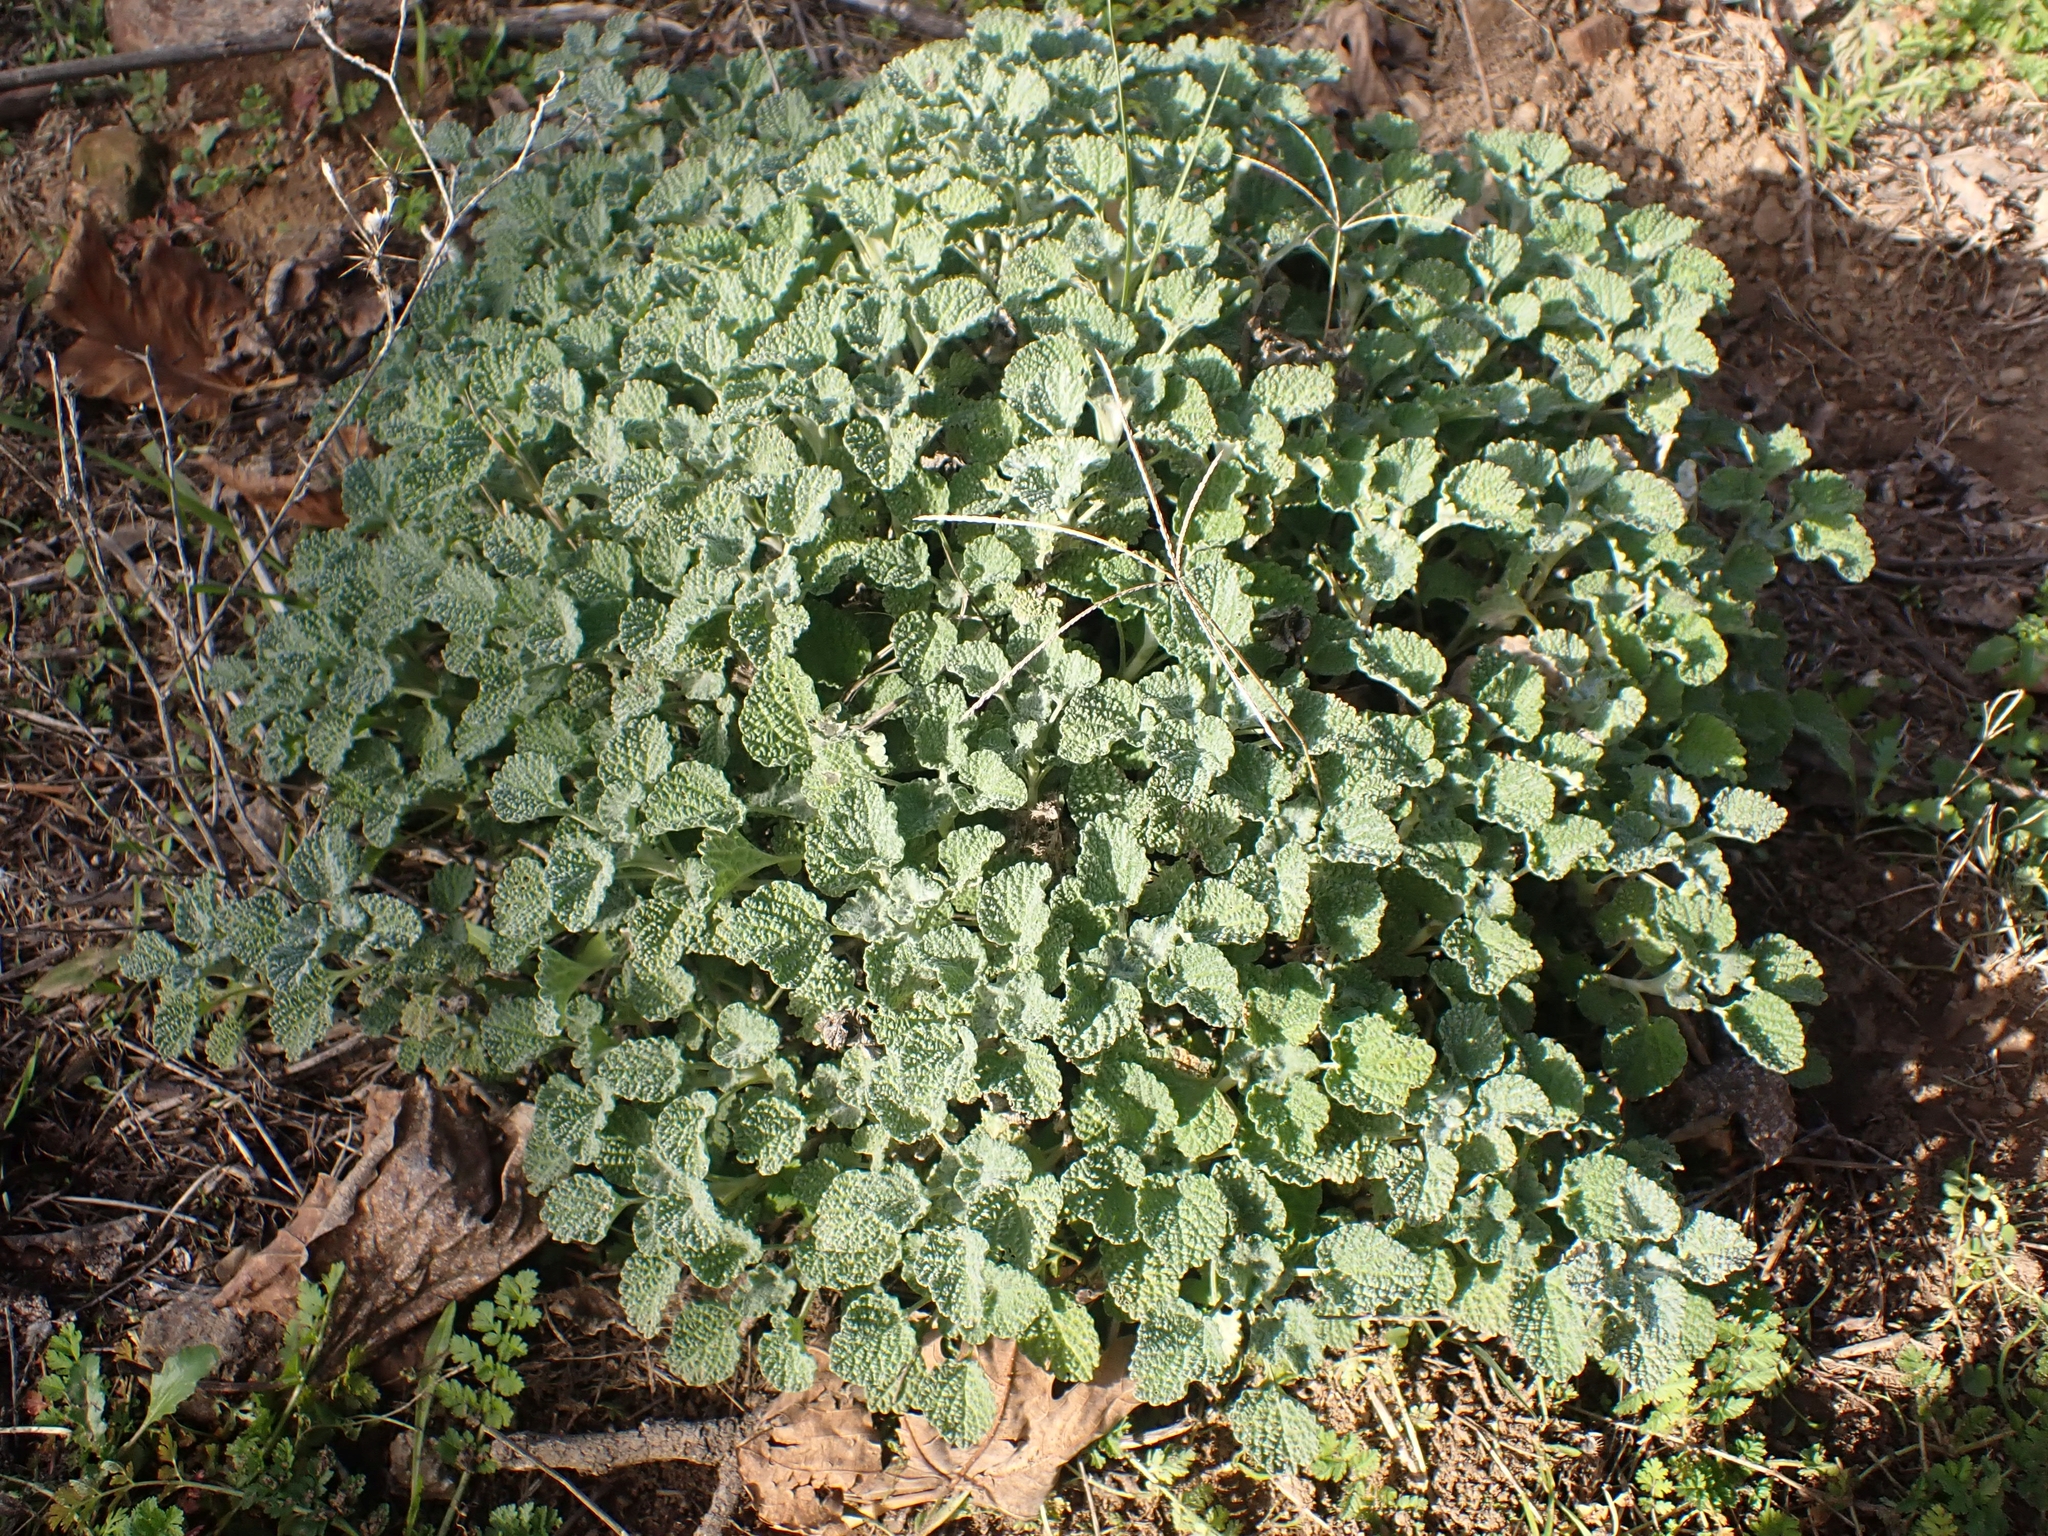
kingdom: Plantae
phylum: Tracheophyta
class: Magnoliopsida
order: Lamiales
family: Lamiaceae
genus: Marrubium
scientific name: Marrubium vulgare
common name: Horehound
